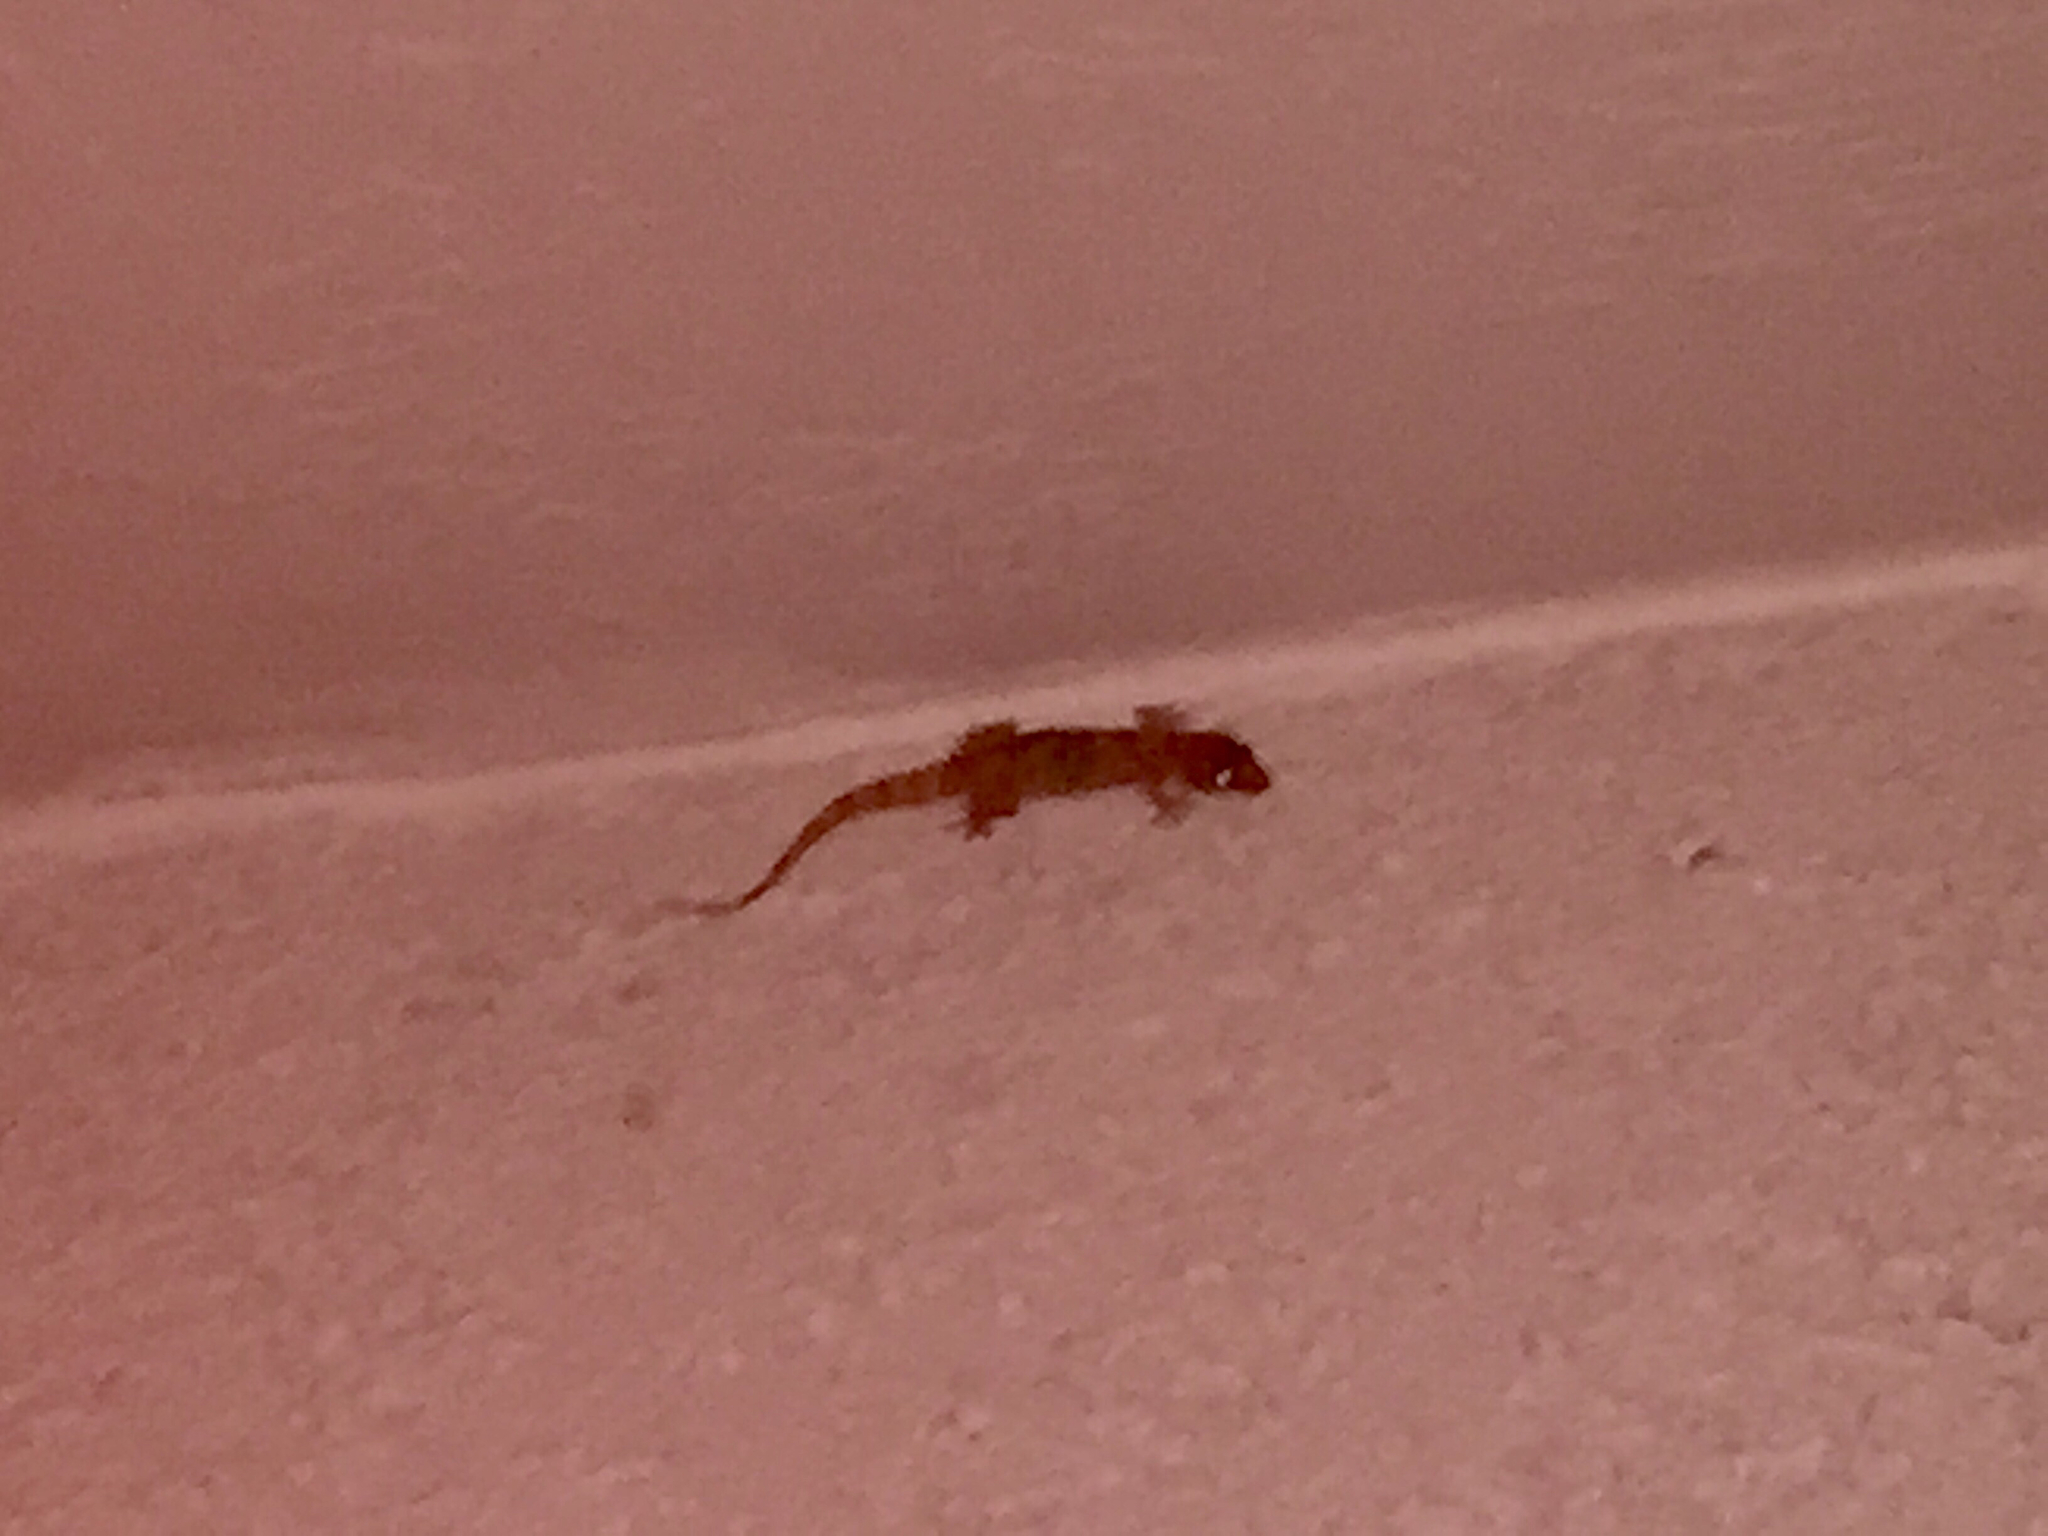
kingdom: Animalia
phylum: Chordata
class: Squamata
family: Gekkonidae
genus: Hemidactylus
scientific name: Hemidactylus turcicus
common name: Turkish gecko
